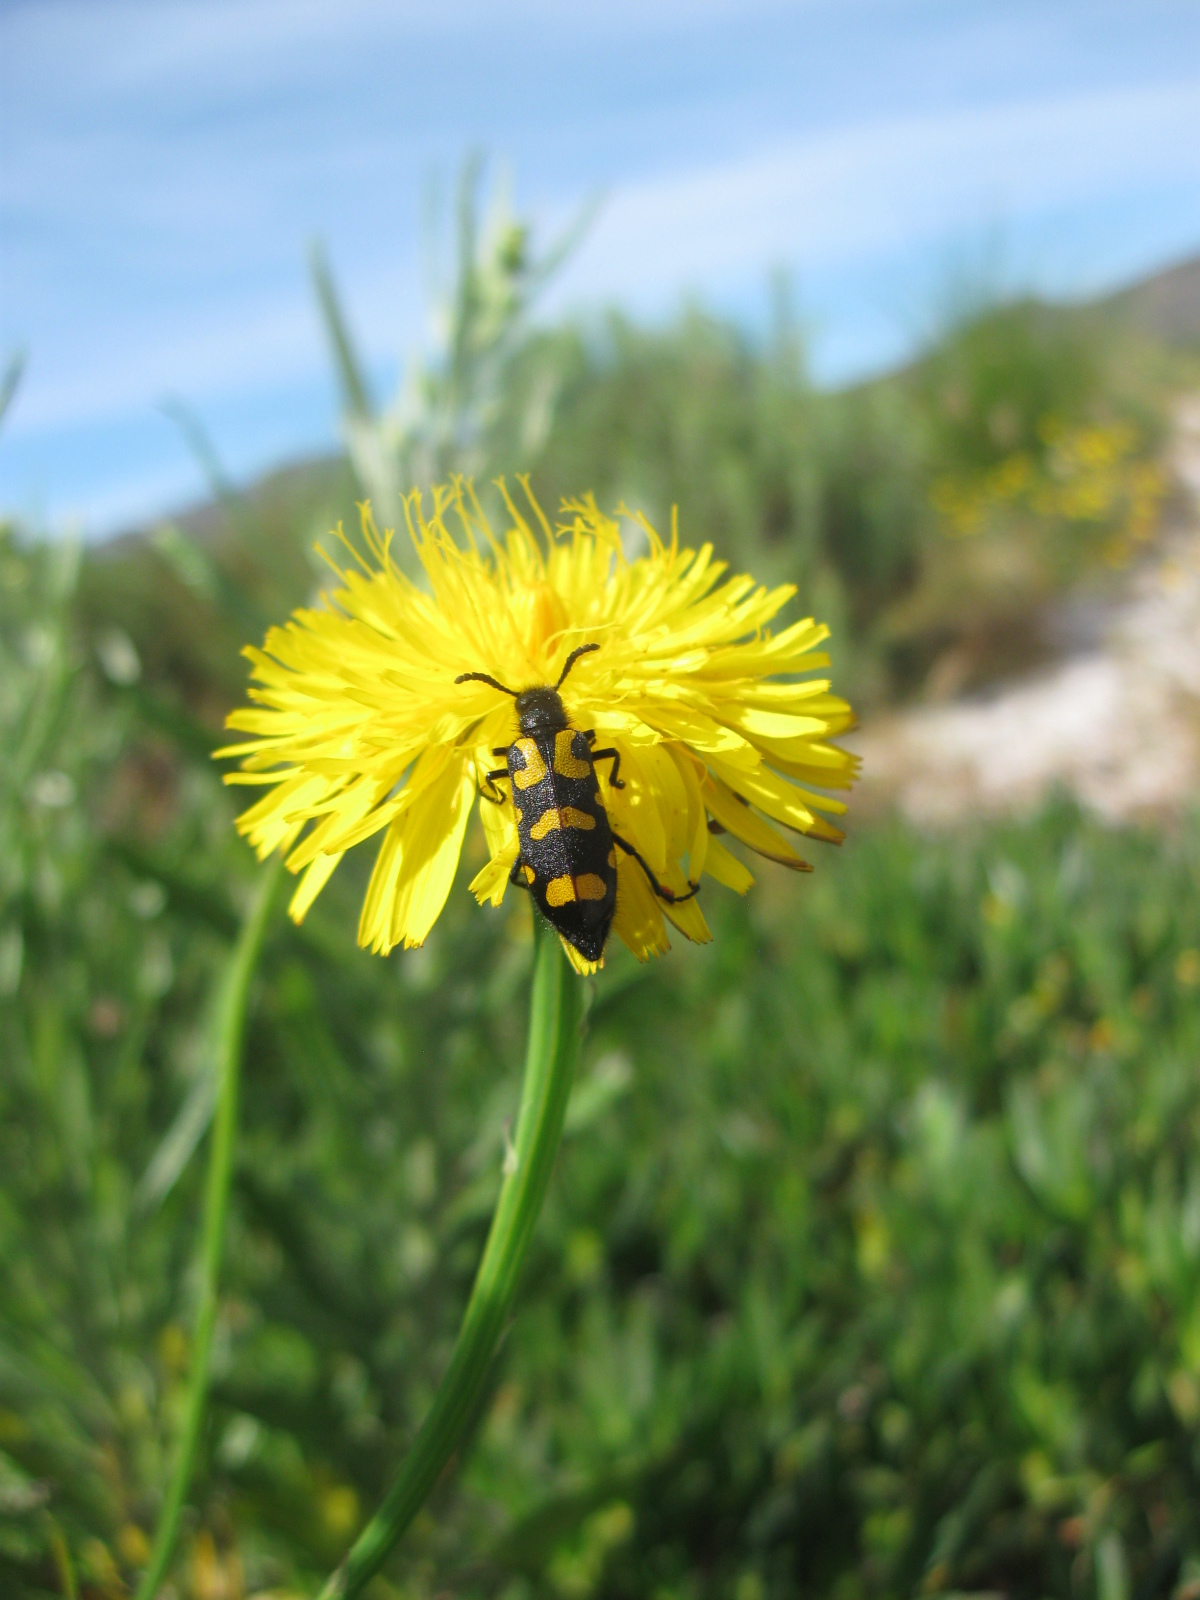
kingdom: Animalia
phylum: Arthropoda
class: Insecta
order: Coleoptera
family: Meloidae
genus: Ceroctis
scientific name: Ceroctis capensis
